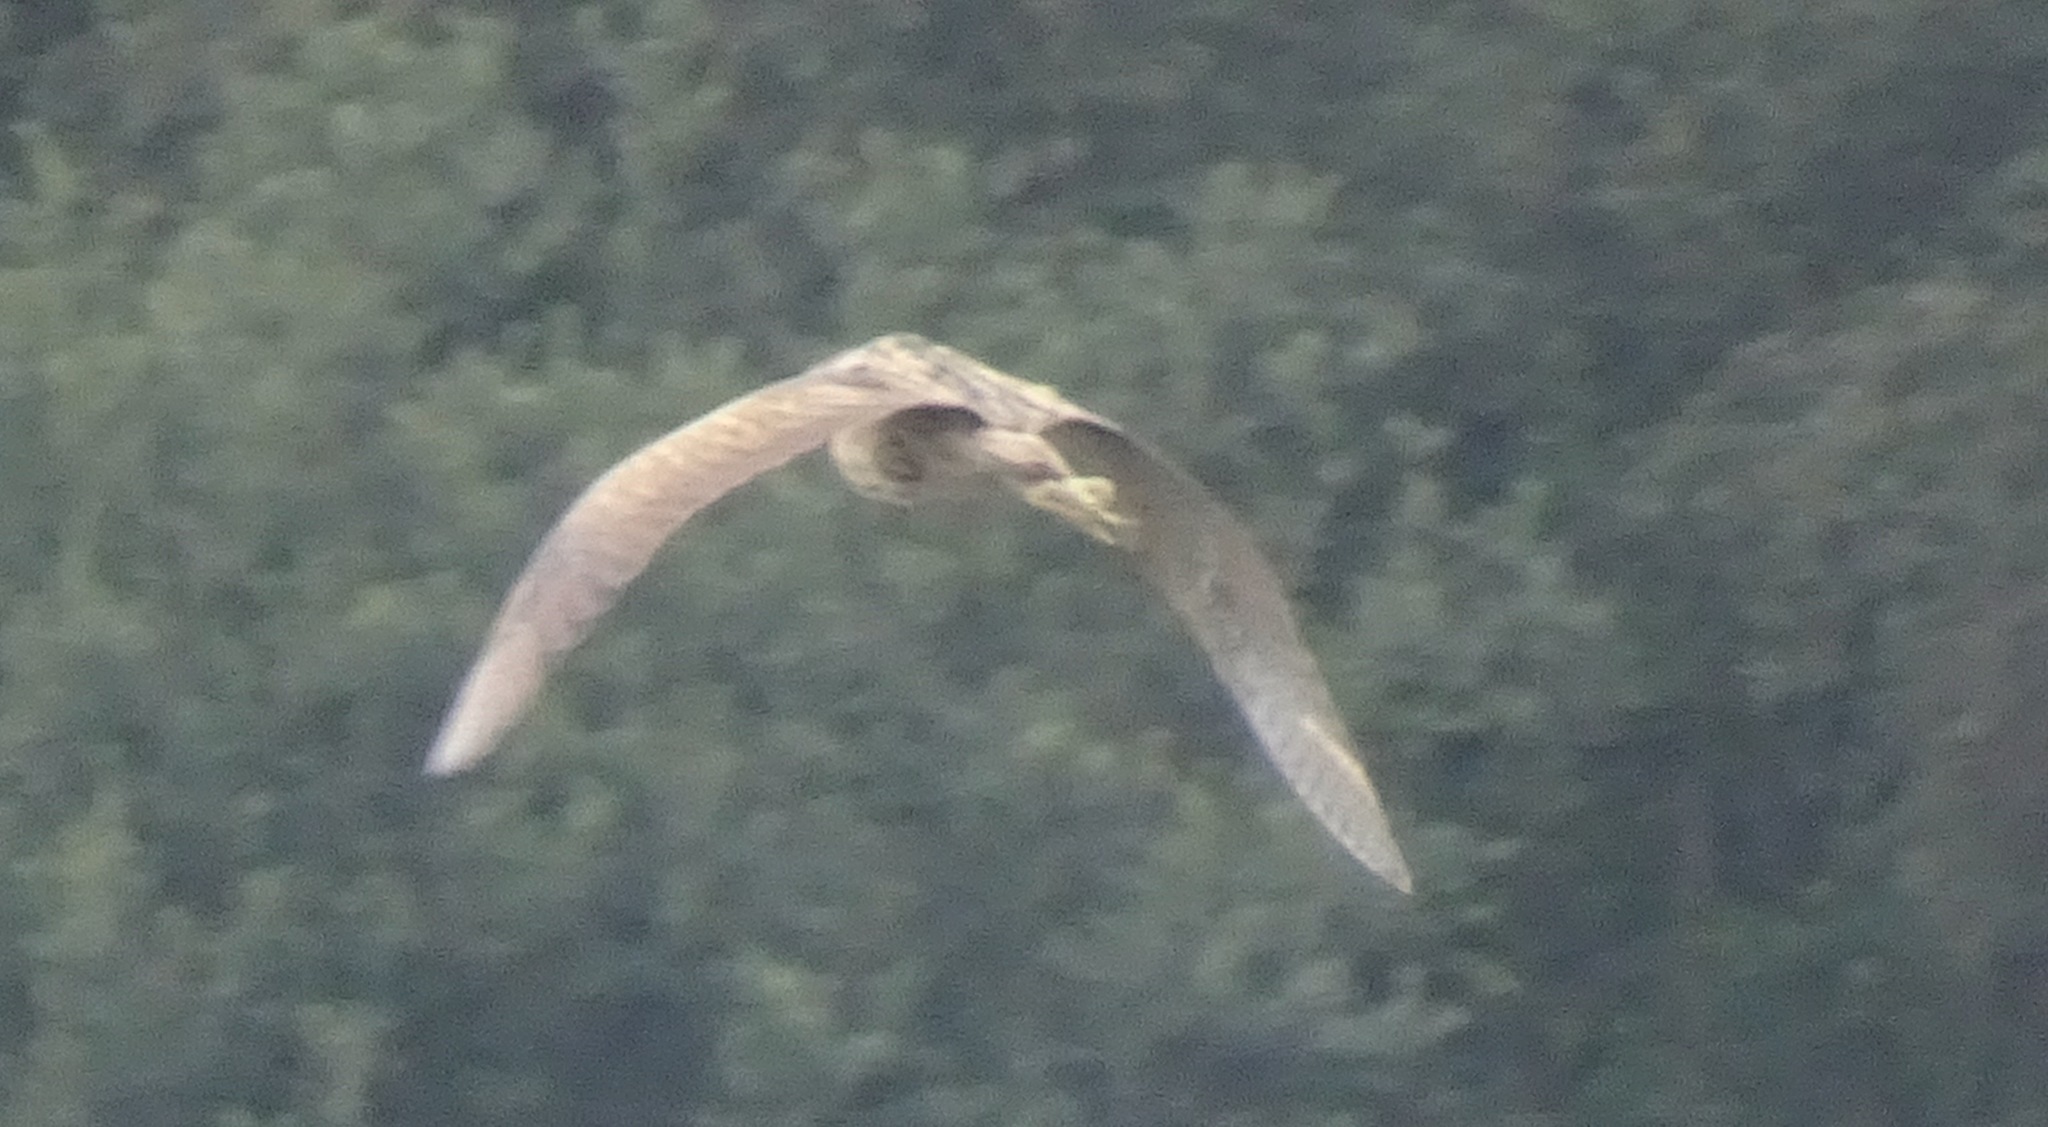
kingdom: Animalia
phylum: Chordata
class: Aves
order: Pelecaniformes
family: Ardeidae
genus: Botaurus
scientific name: Botaurus stellaris
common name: Eurasian bittern
